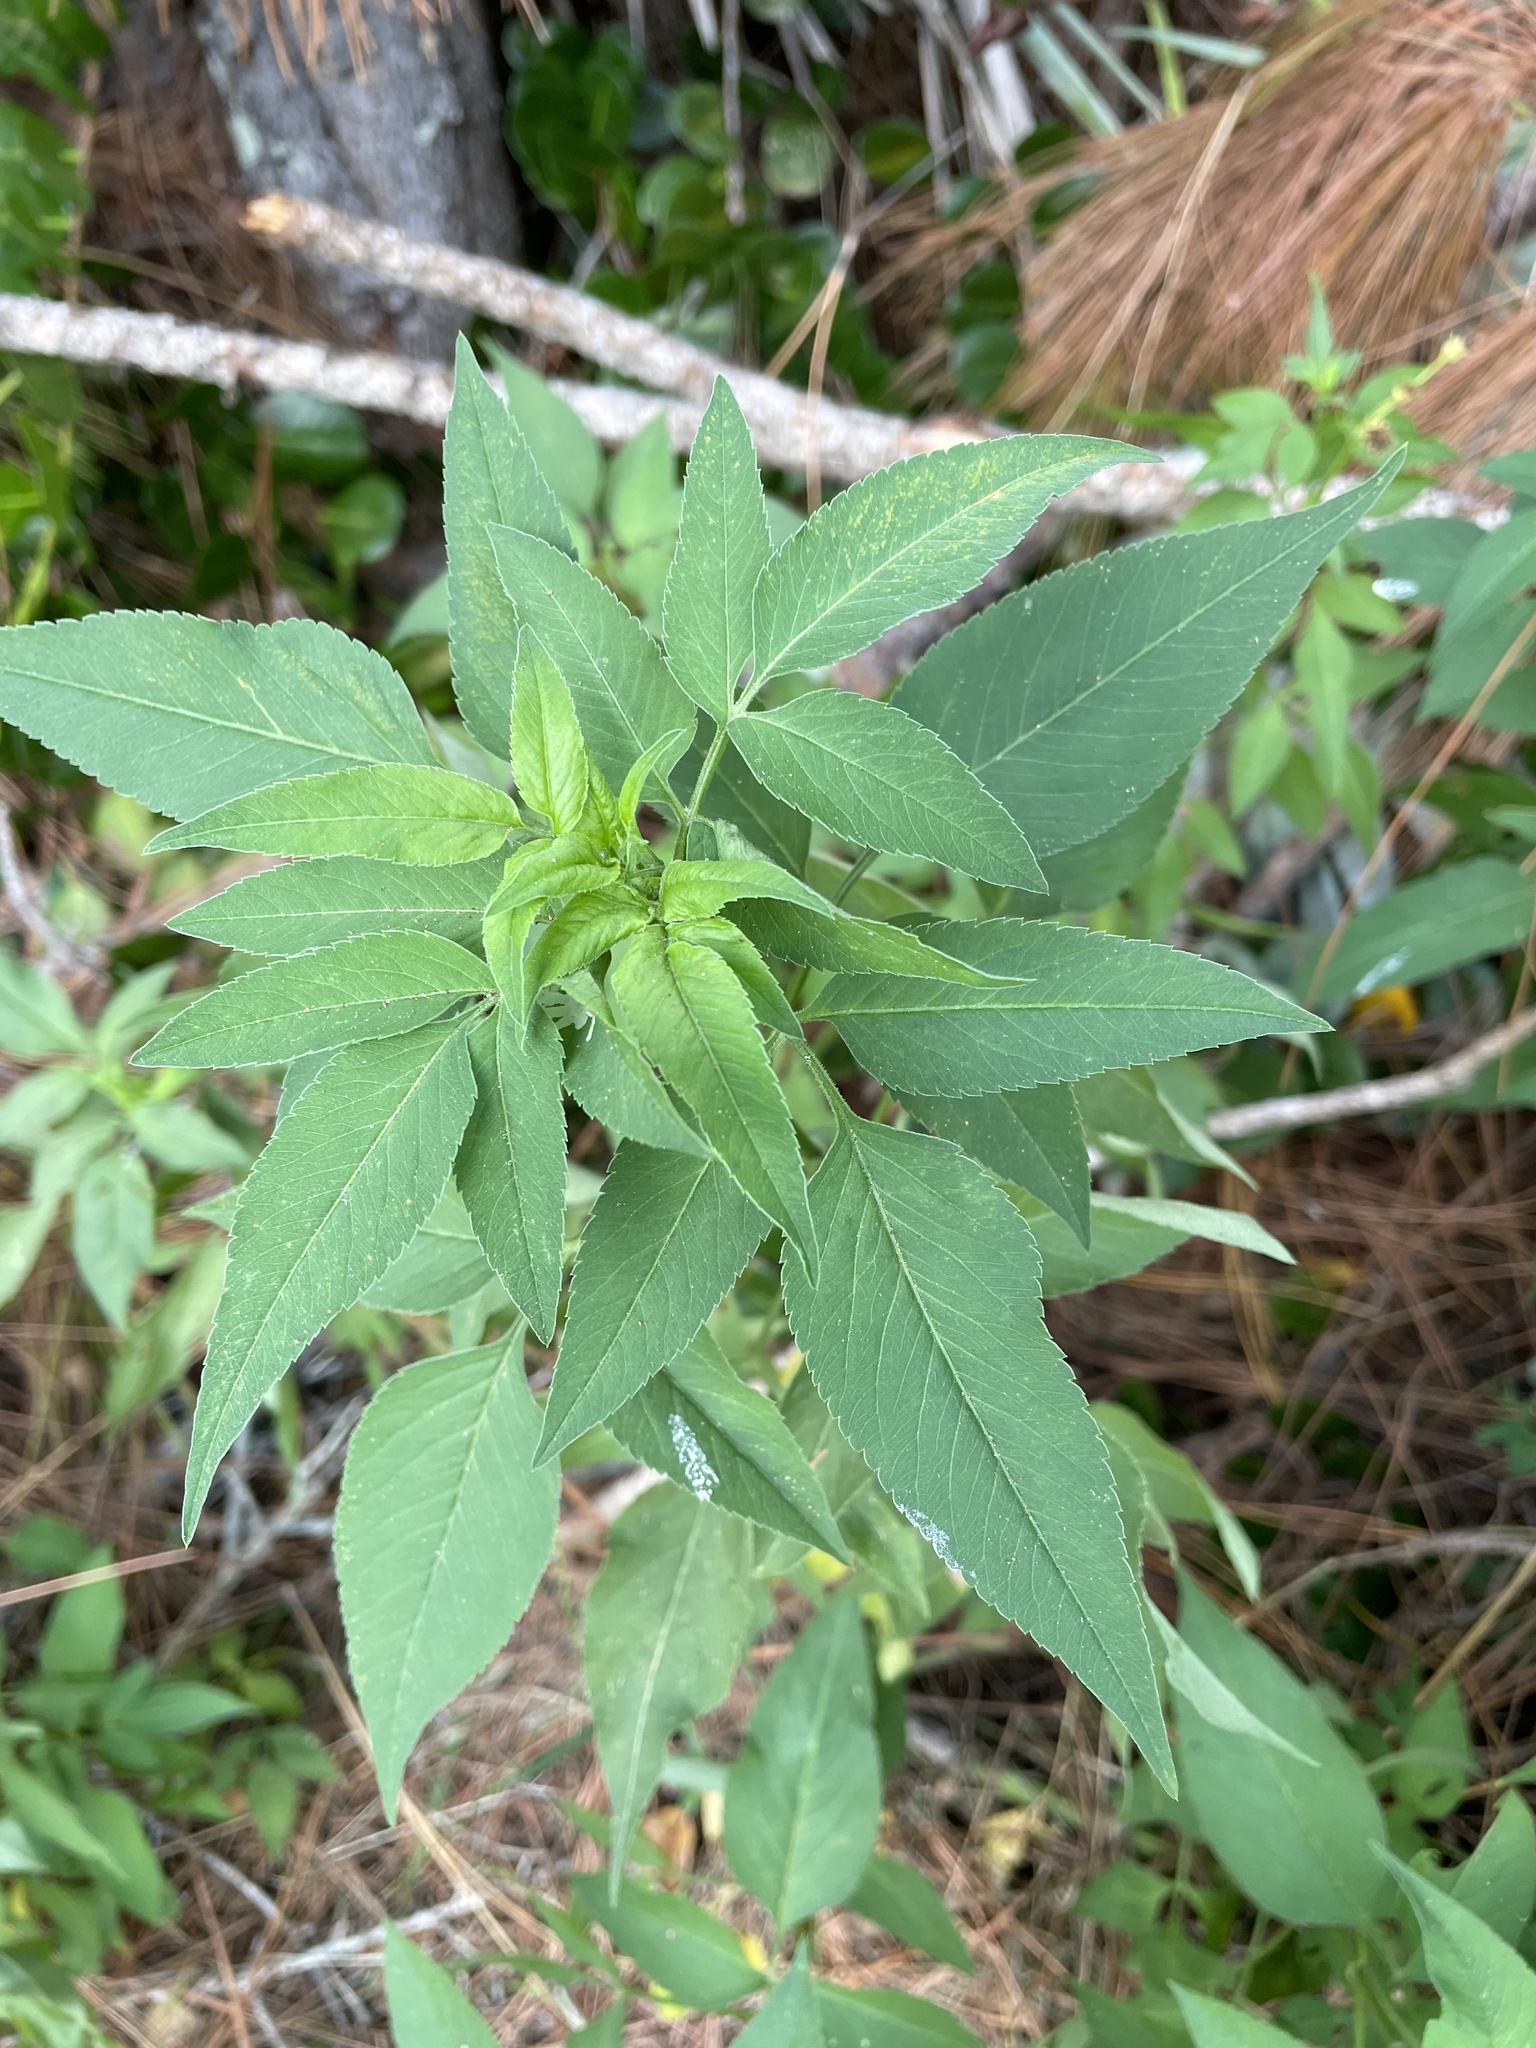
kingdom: Plantae
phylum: Tracheophyta
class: Magnoliopsida
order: Asterales
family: Asteraceae
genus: Bidens
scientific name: Bidens alba
